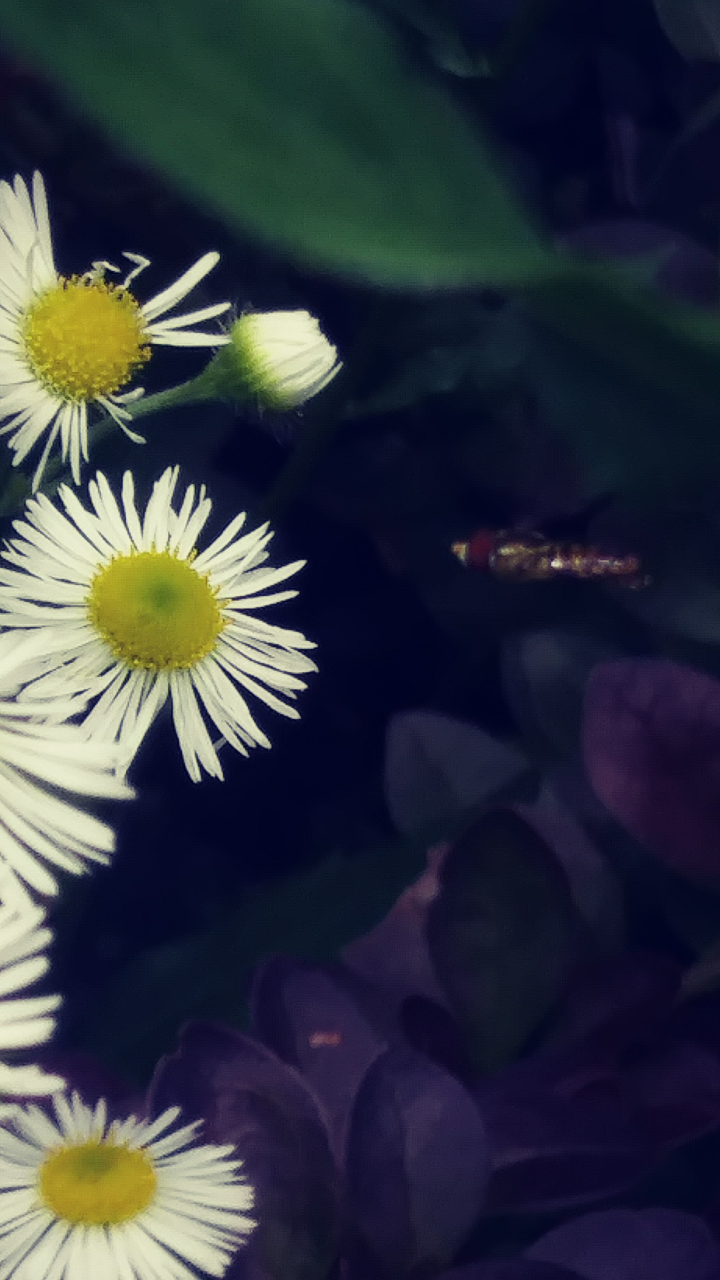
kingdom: Animalia
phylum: Arthropoda
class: Insecta
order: Diptera
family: Syrphidae
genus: Toxomerus
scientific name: Toxomerus geminatus
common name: Eastern calligrapher
